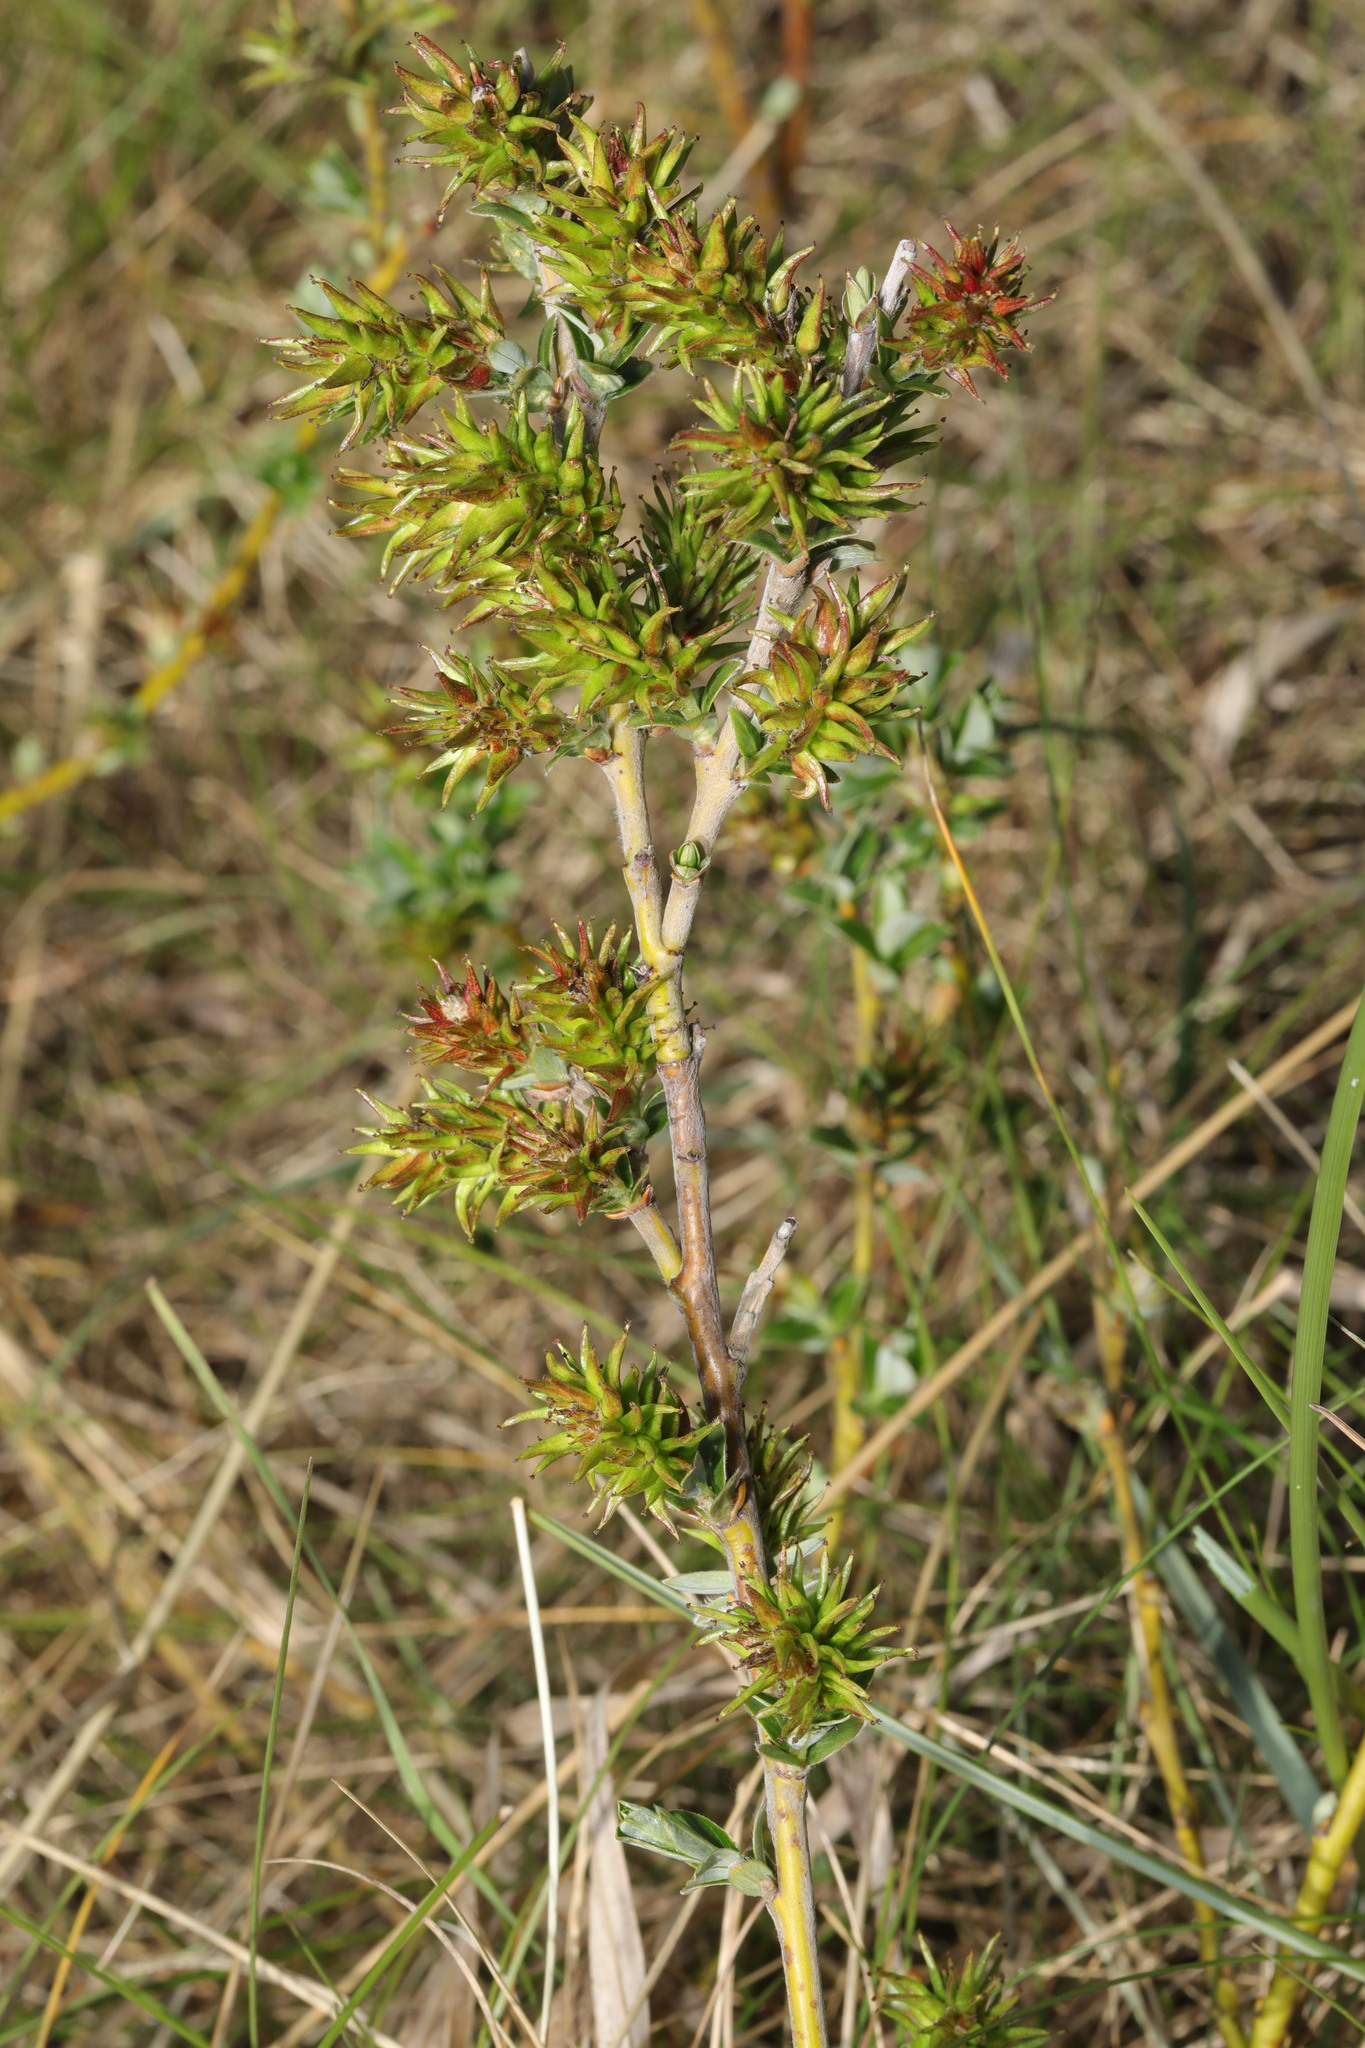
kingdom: Plantae
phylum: Tracheophyta
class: Magnoliopsida
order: Malpighiales
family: Salicaceae
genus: Salix
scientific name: Salix repens
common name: Creeping willow
